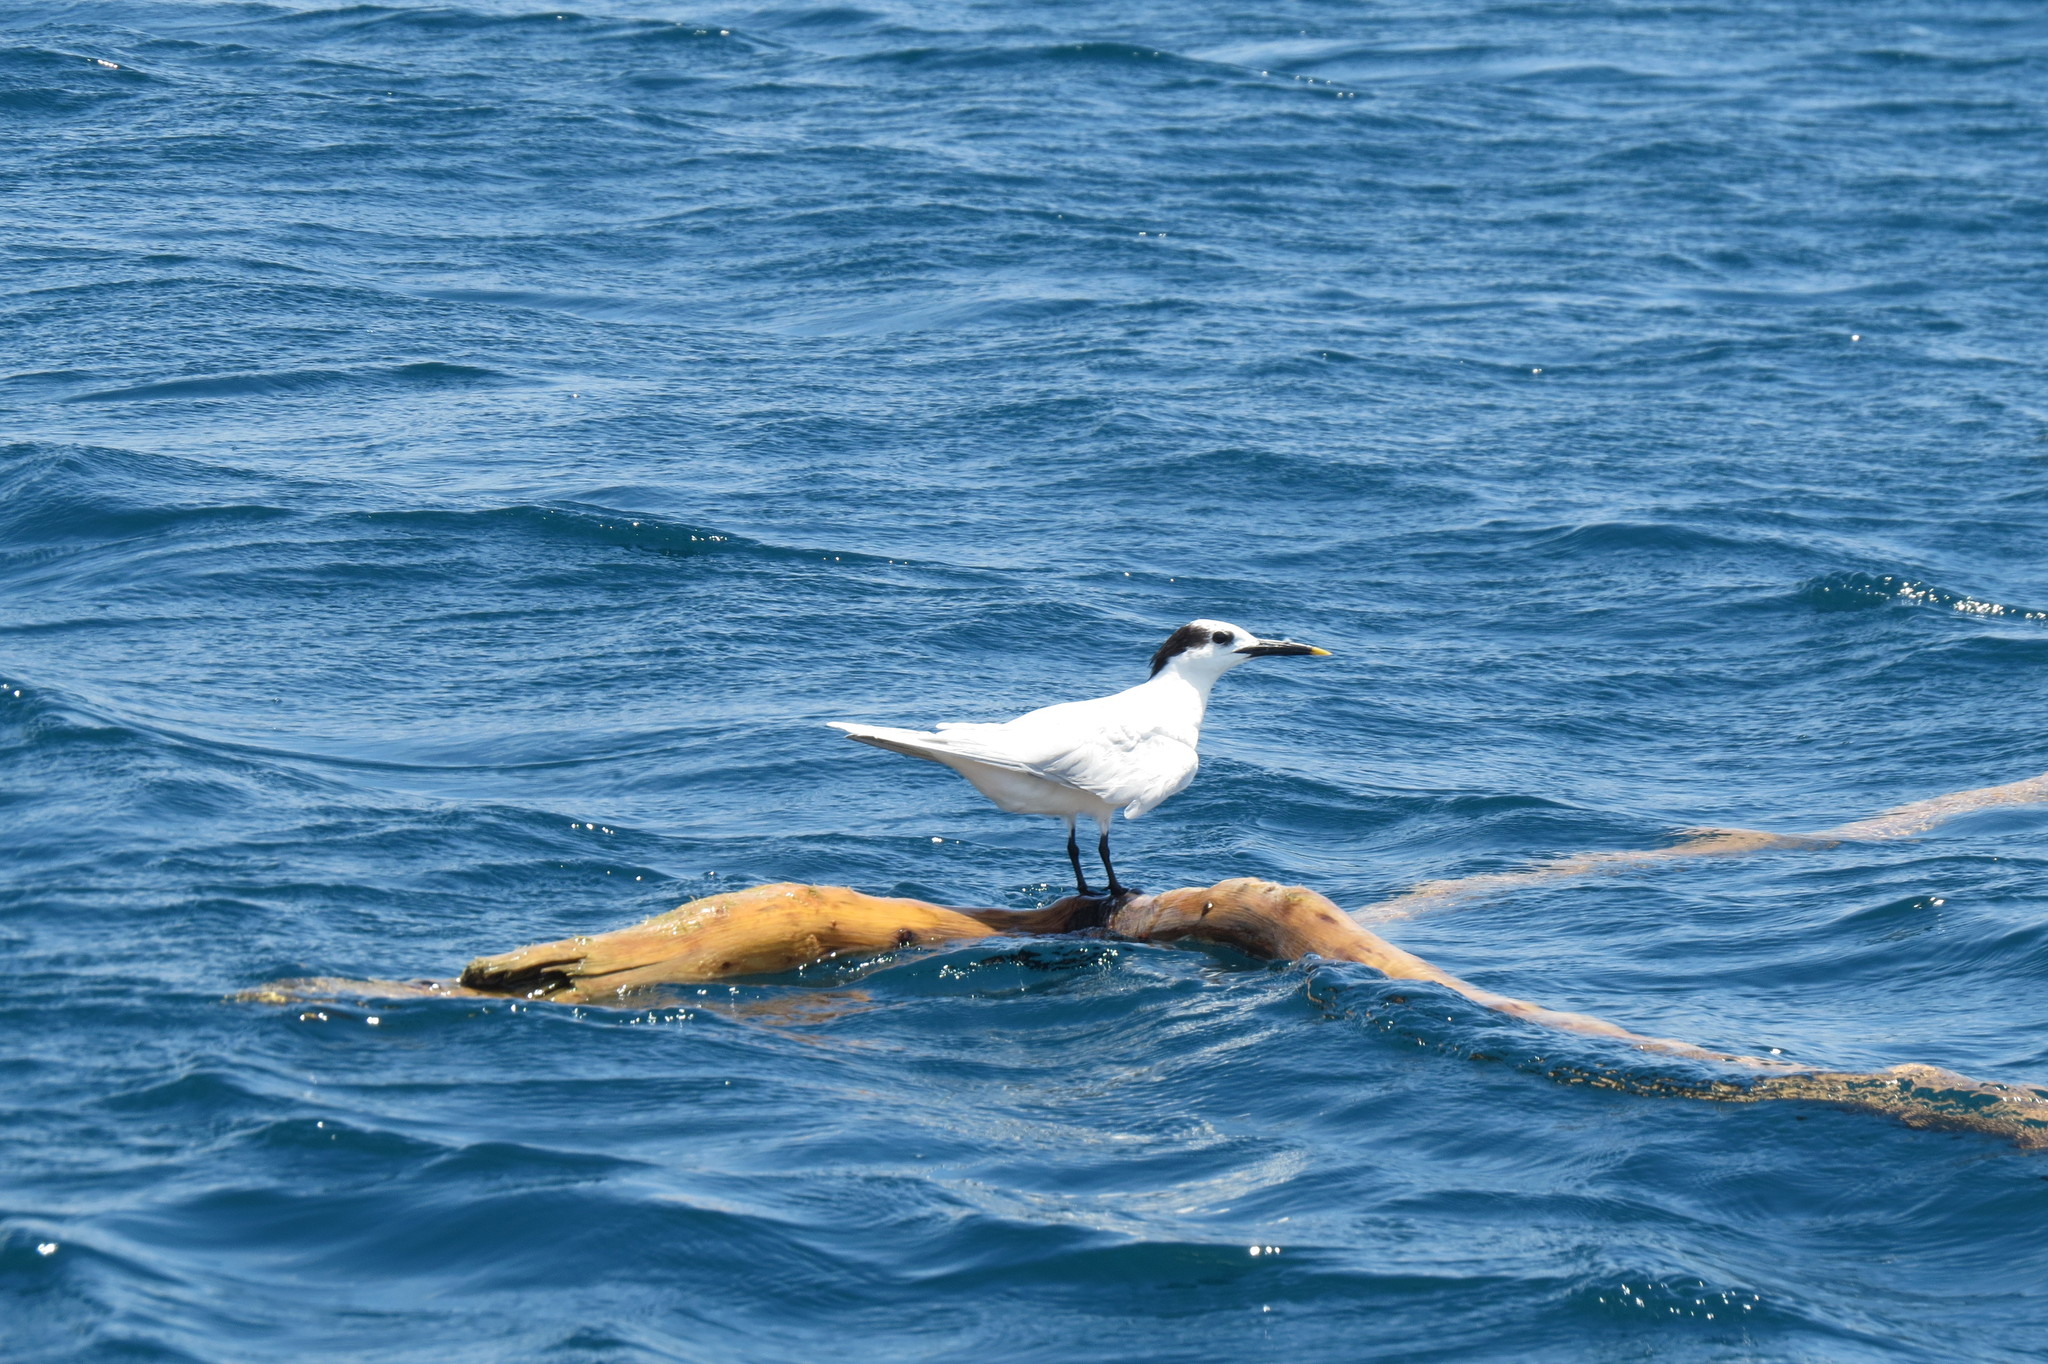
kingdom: Animalia
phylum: Chordata
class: Aves
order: Charadriiformes
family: Laridae
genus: Thalasseus
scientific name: Thalasseus sandvicensis
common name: Sandwich tern
